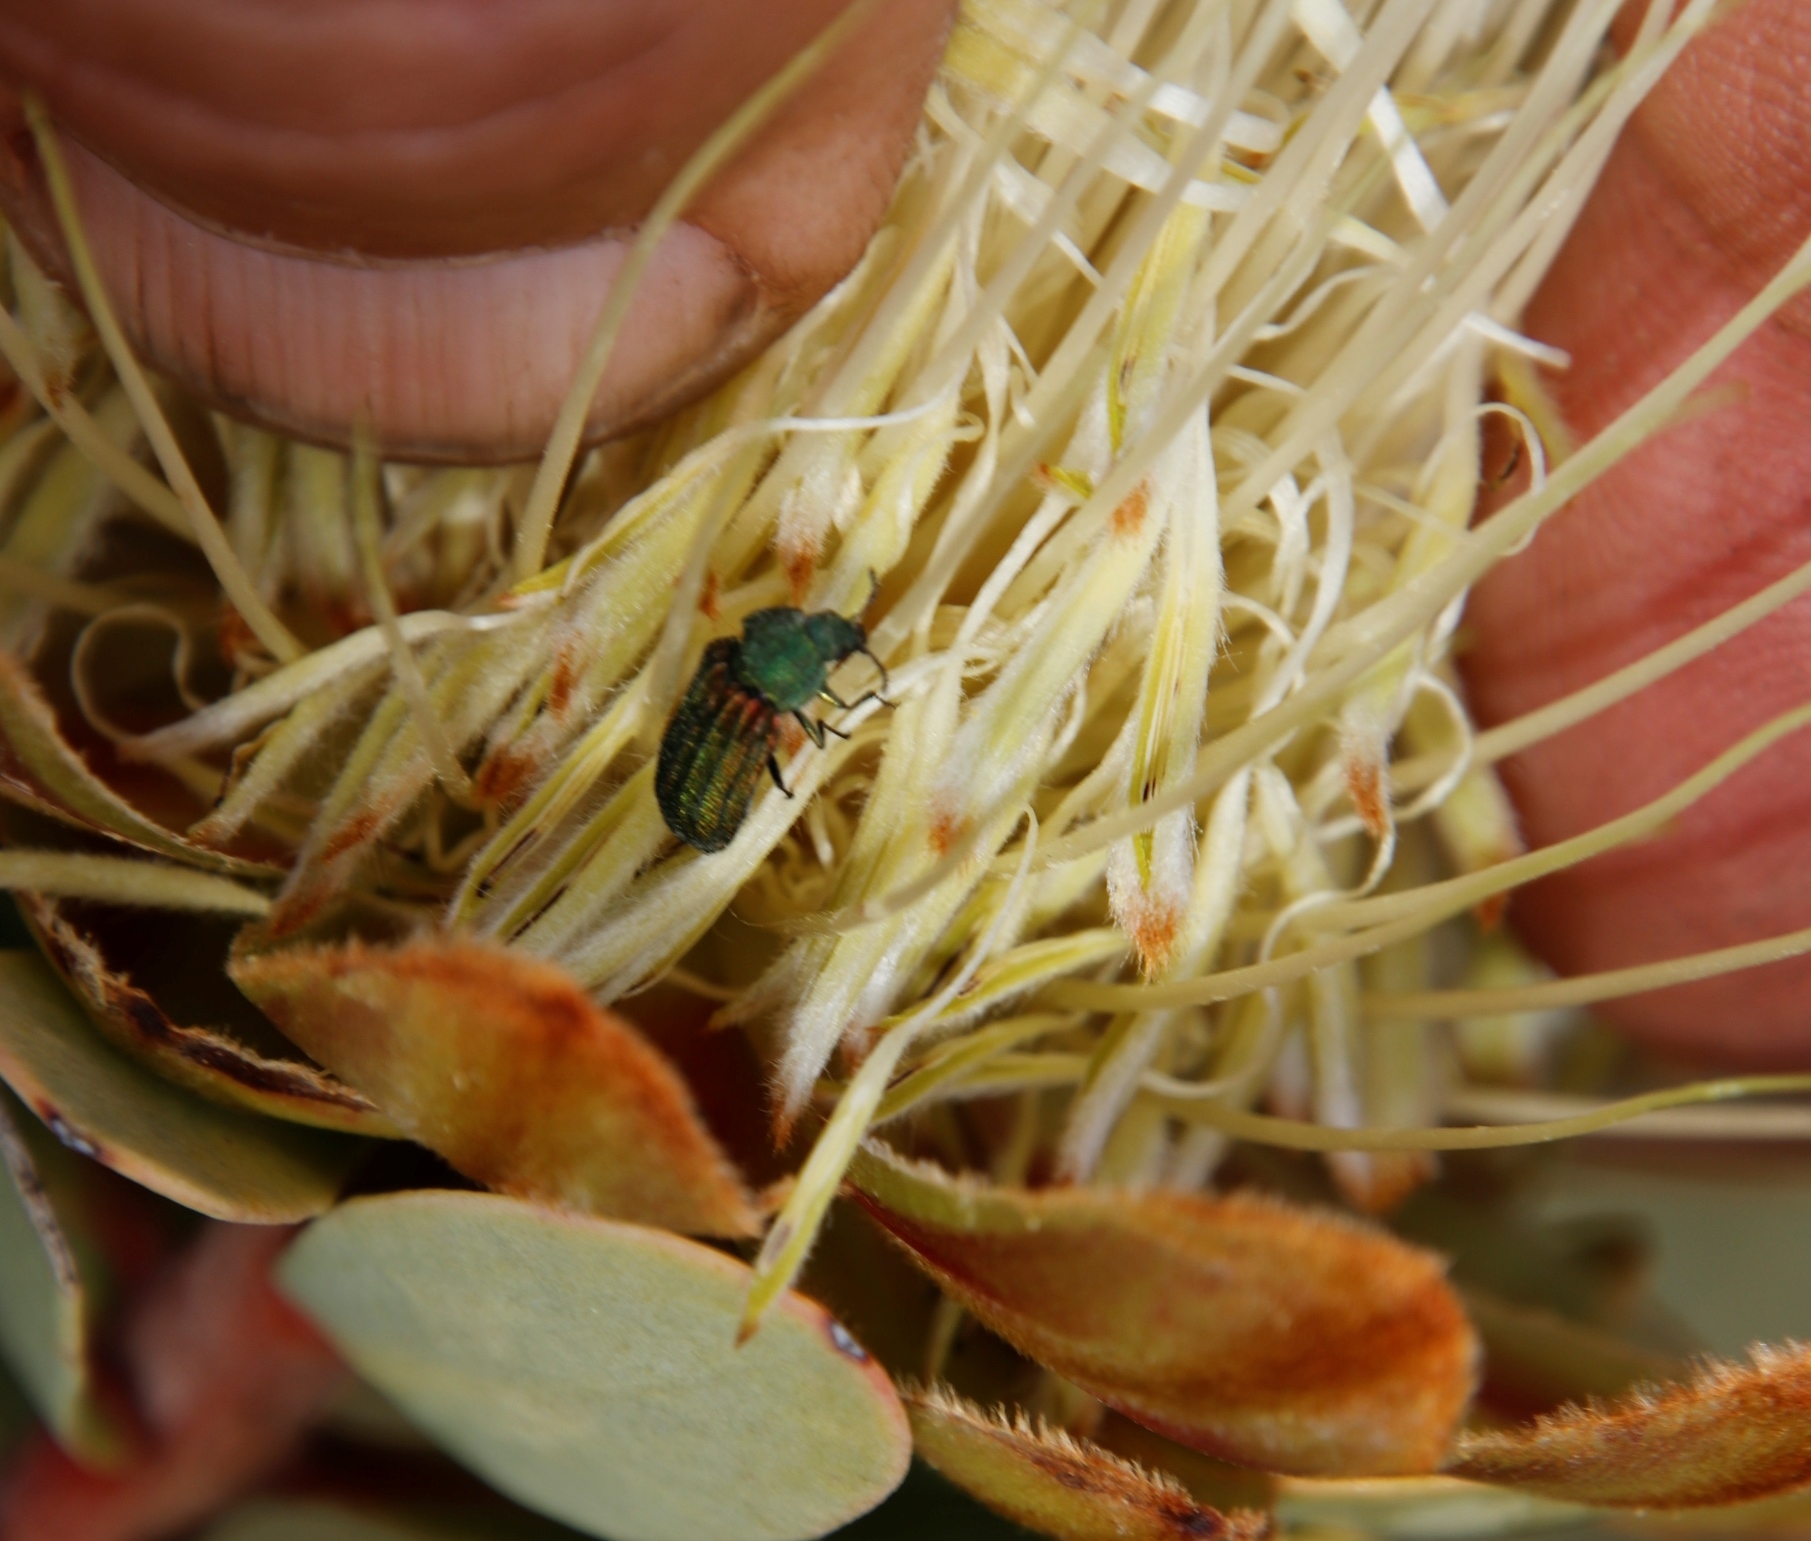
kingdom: Animalia
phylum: Arthropoda
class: Insecta
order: Coleoptera
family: Melyridae
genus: Melyris
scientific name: Melyris
